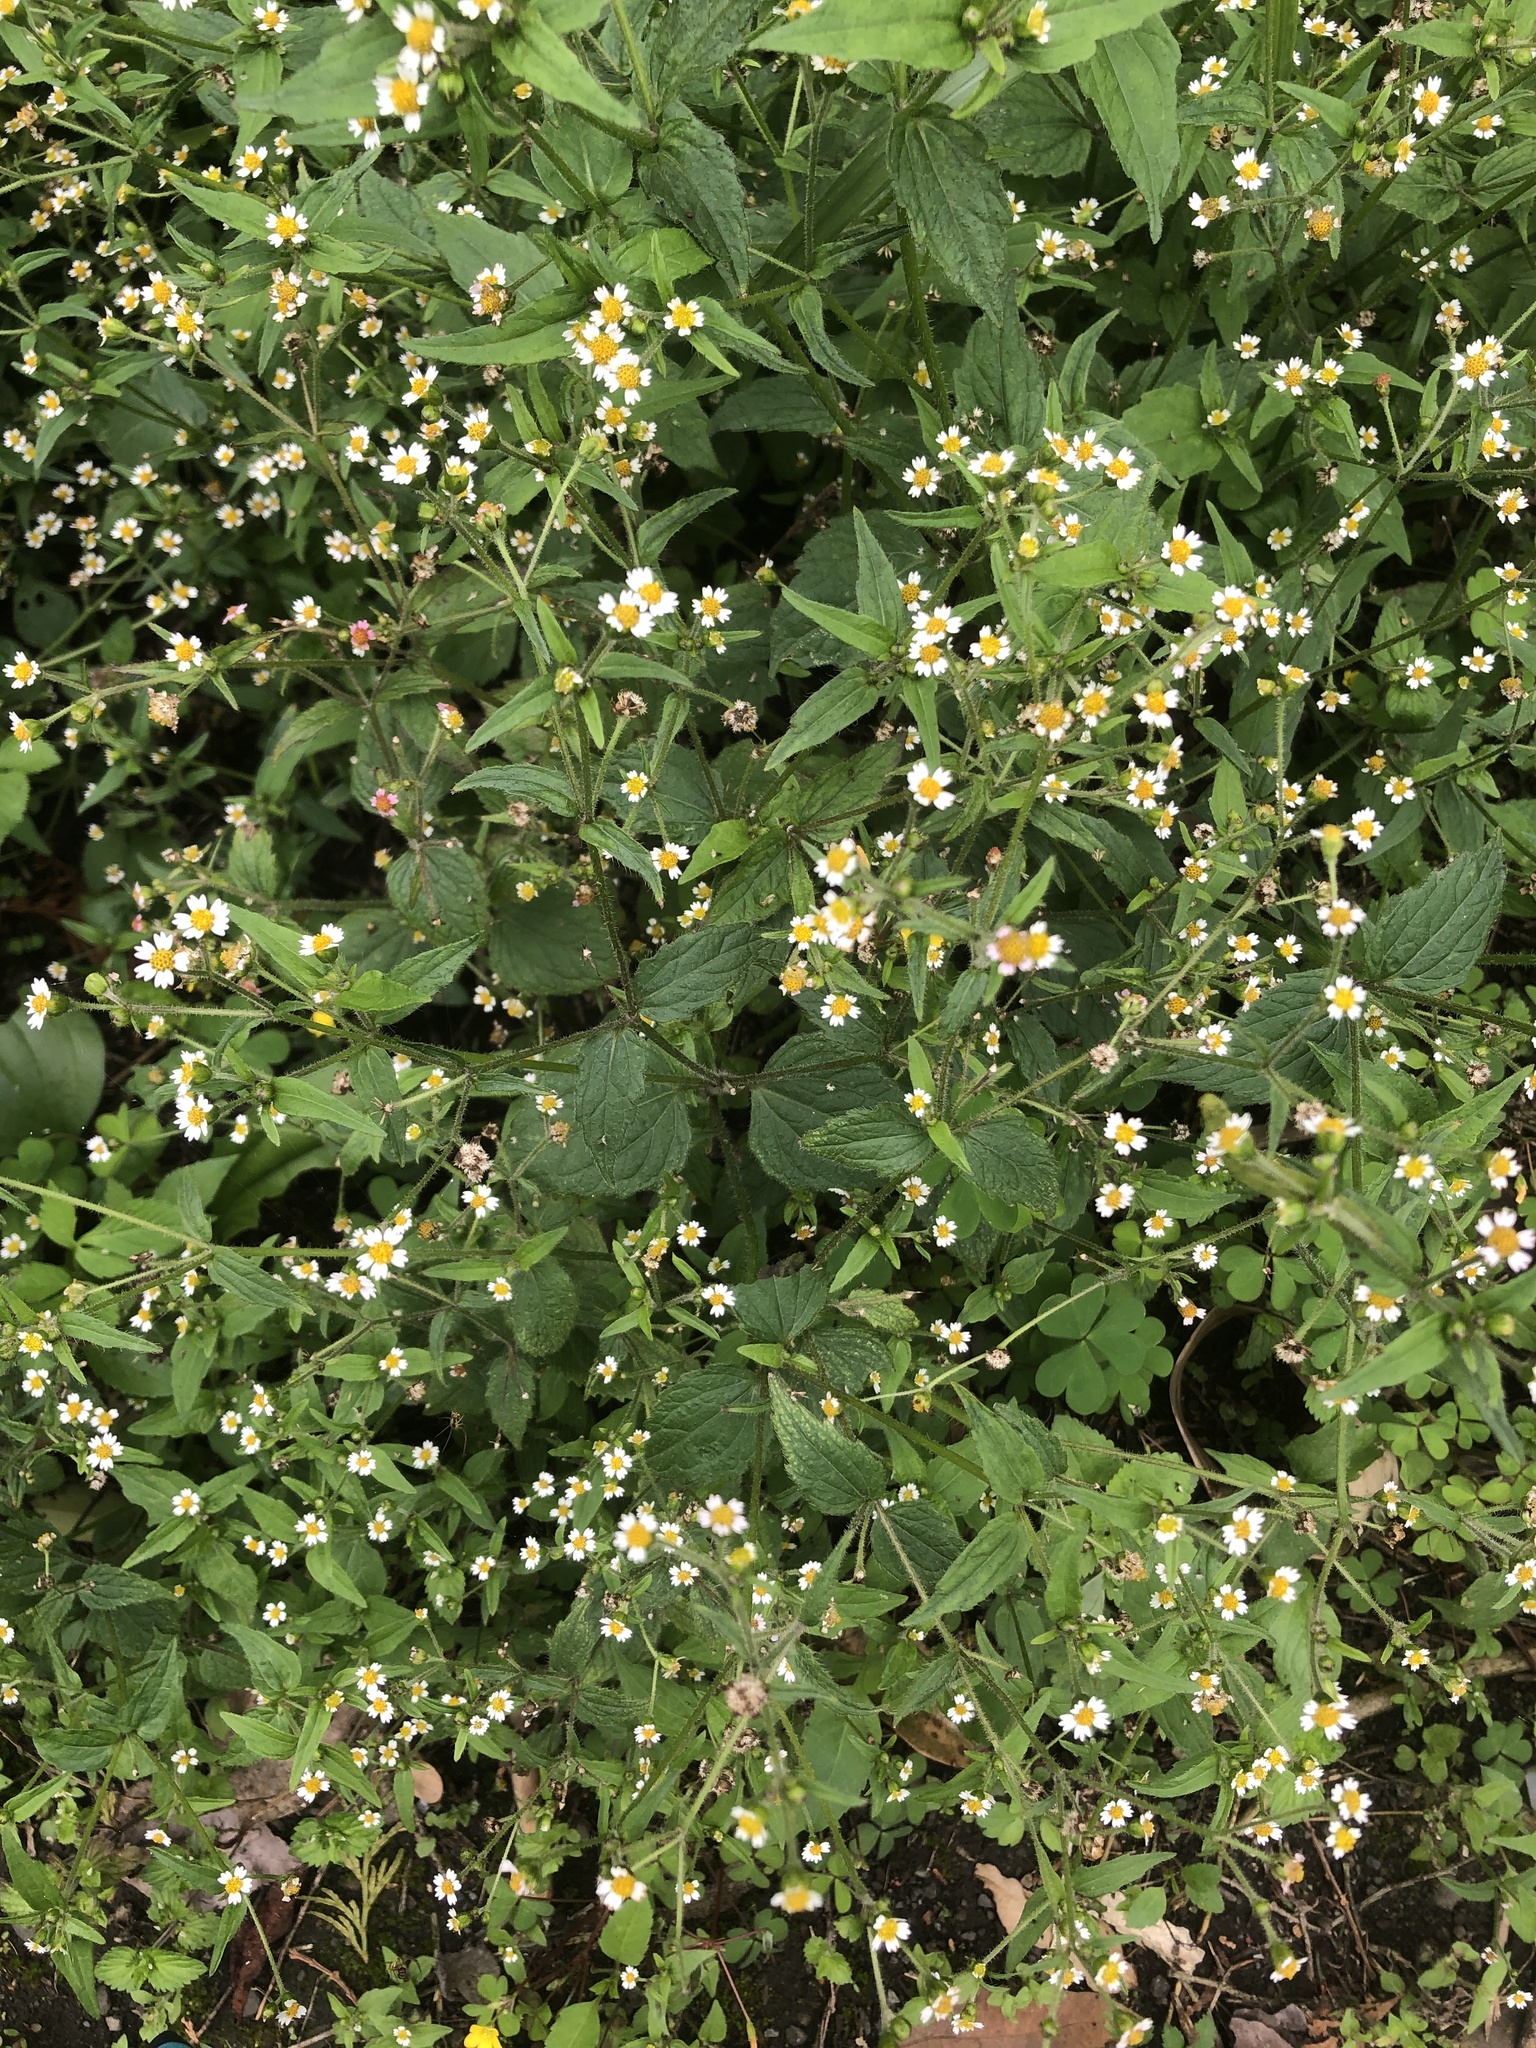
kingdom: Plantae
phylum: Tracheophyta
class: Magnoliopsida
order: Asterales
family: Asteraceae
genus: Galinsoga
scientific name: Galinsoga quadriradiata
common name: Shaggy soldier
